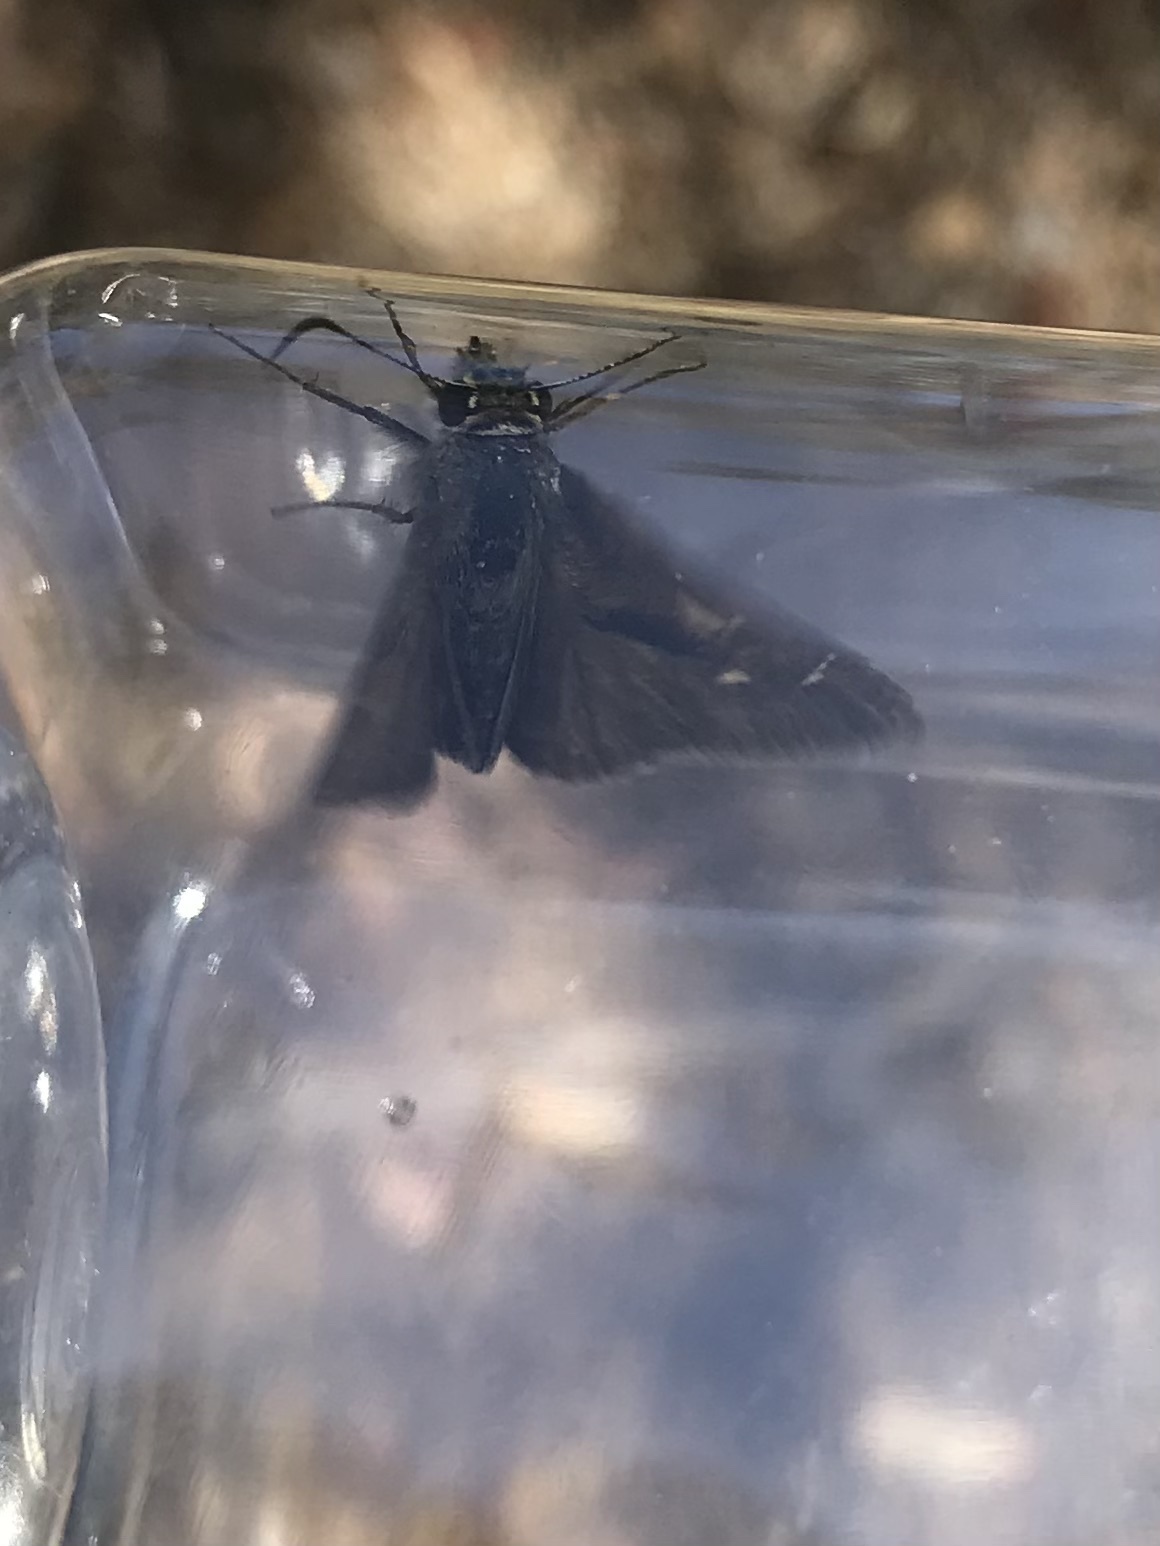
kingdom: Animalia
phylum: Arthropoda
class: Insecta
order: Lepidoptera
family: Hesperiidae
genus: Toxidia
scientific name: Toxidia
